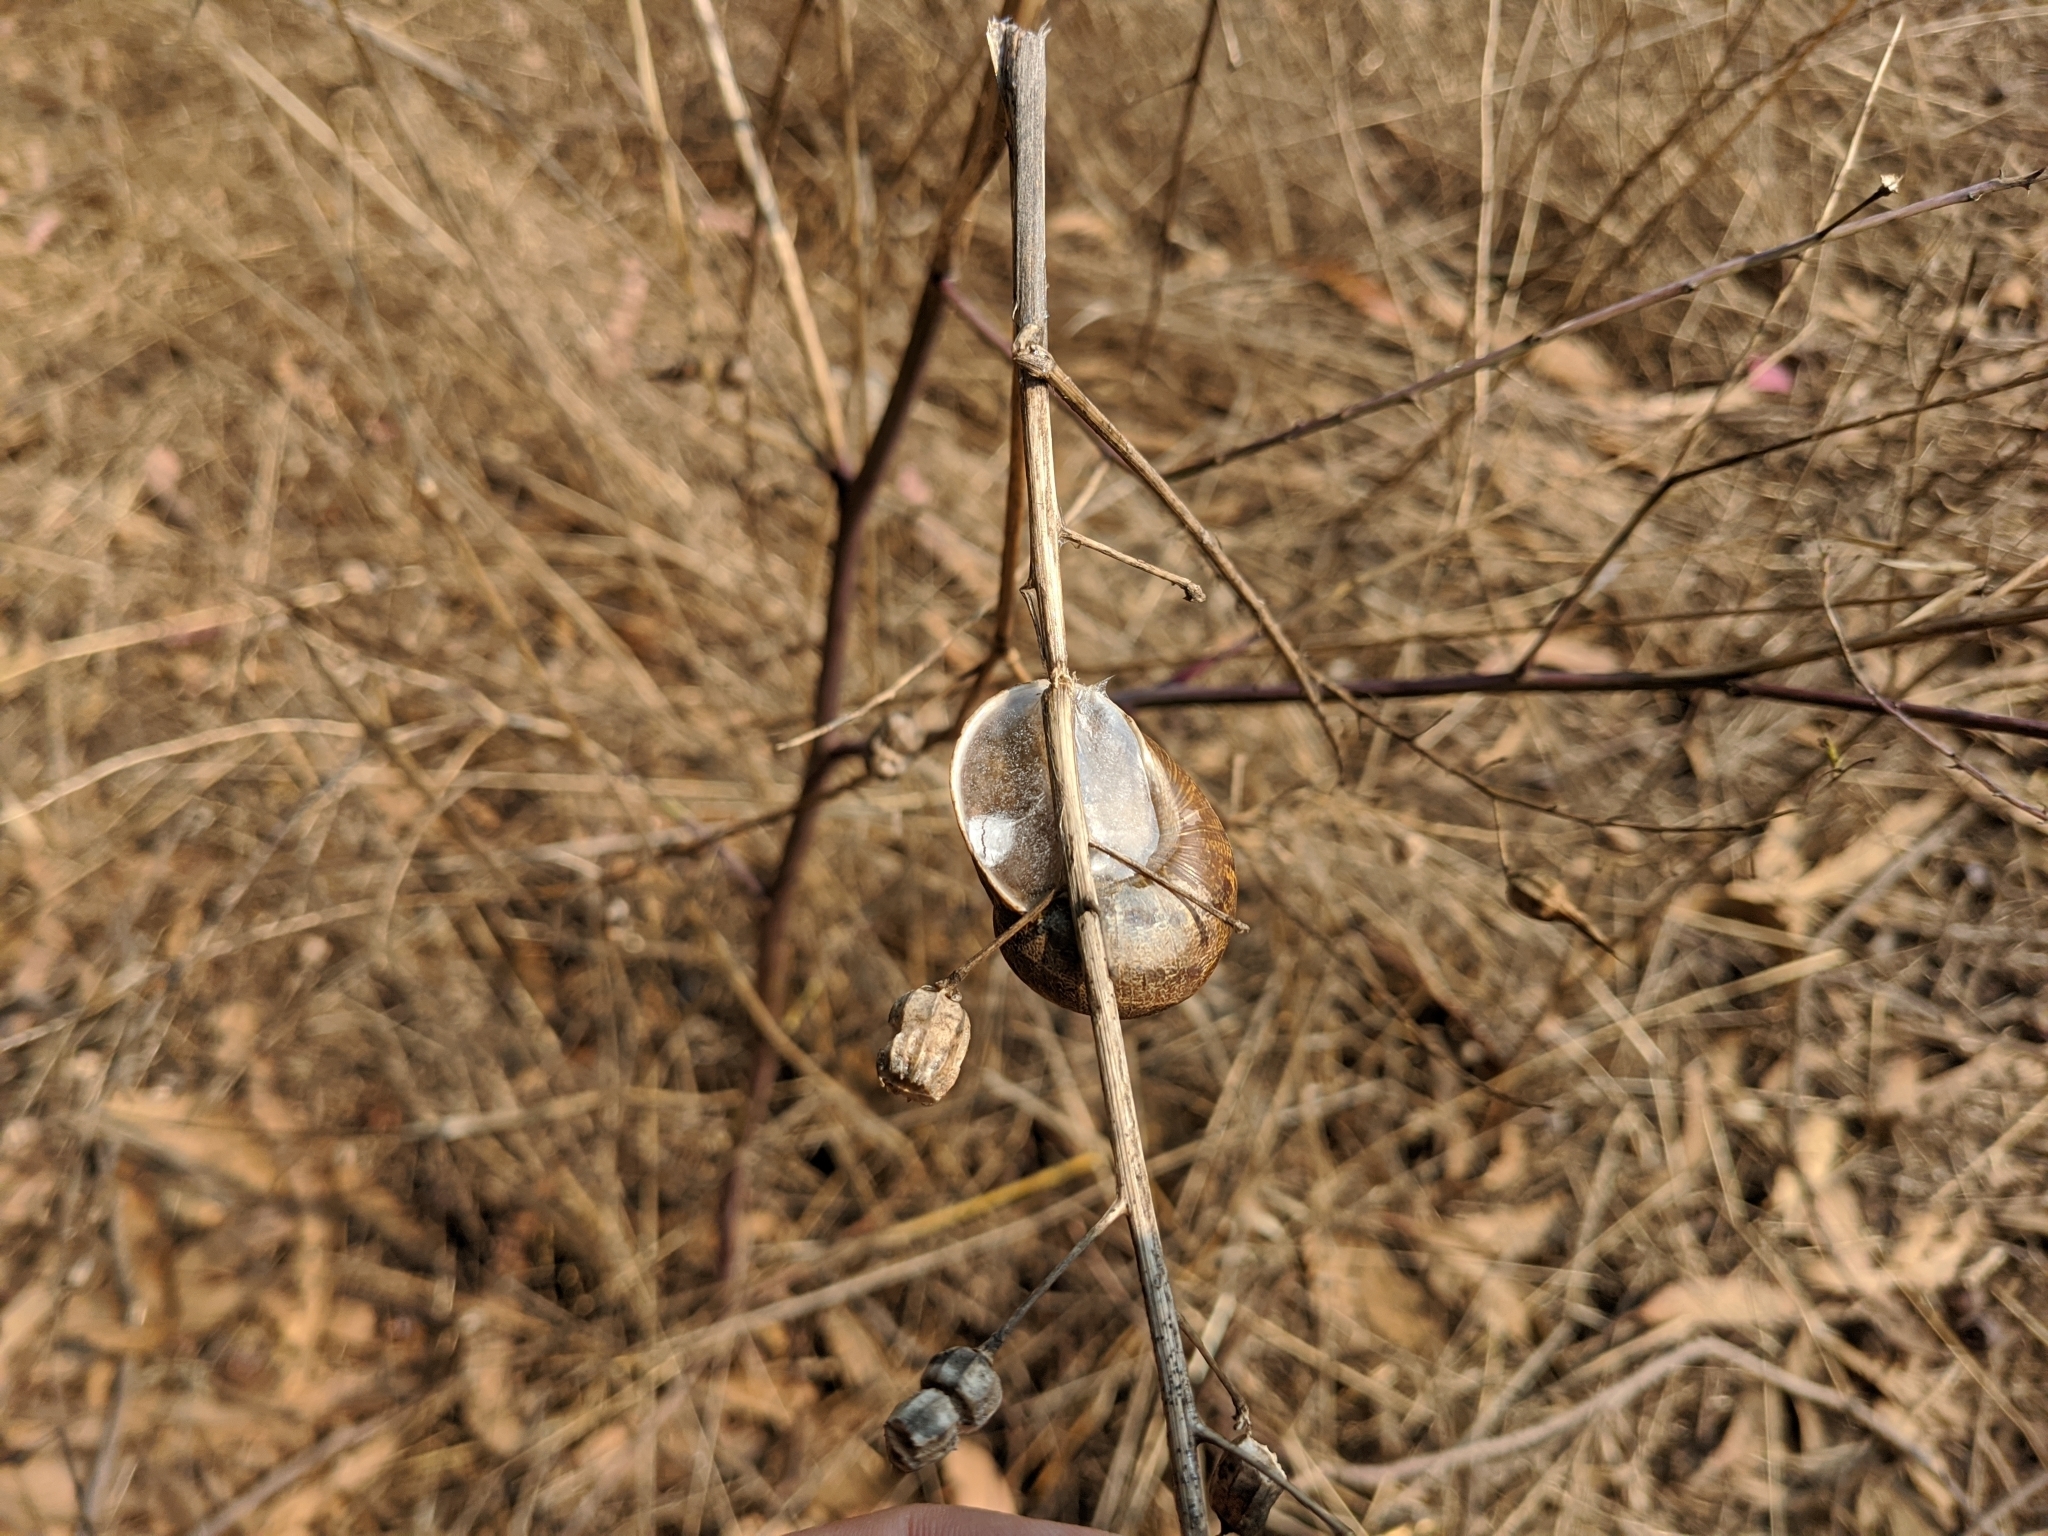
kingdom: Animalia
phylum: Mollusca
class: Gastropoda
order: Stylommatophora
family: Helicidae
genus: Cornu
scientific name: Cornu aspersum
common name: Brown garden snail
